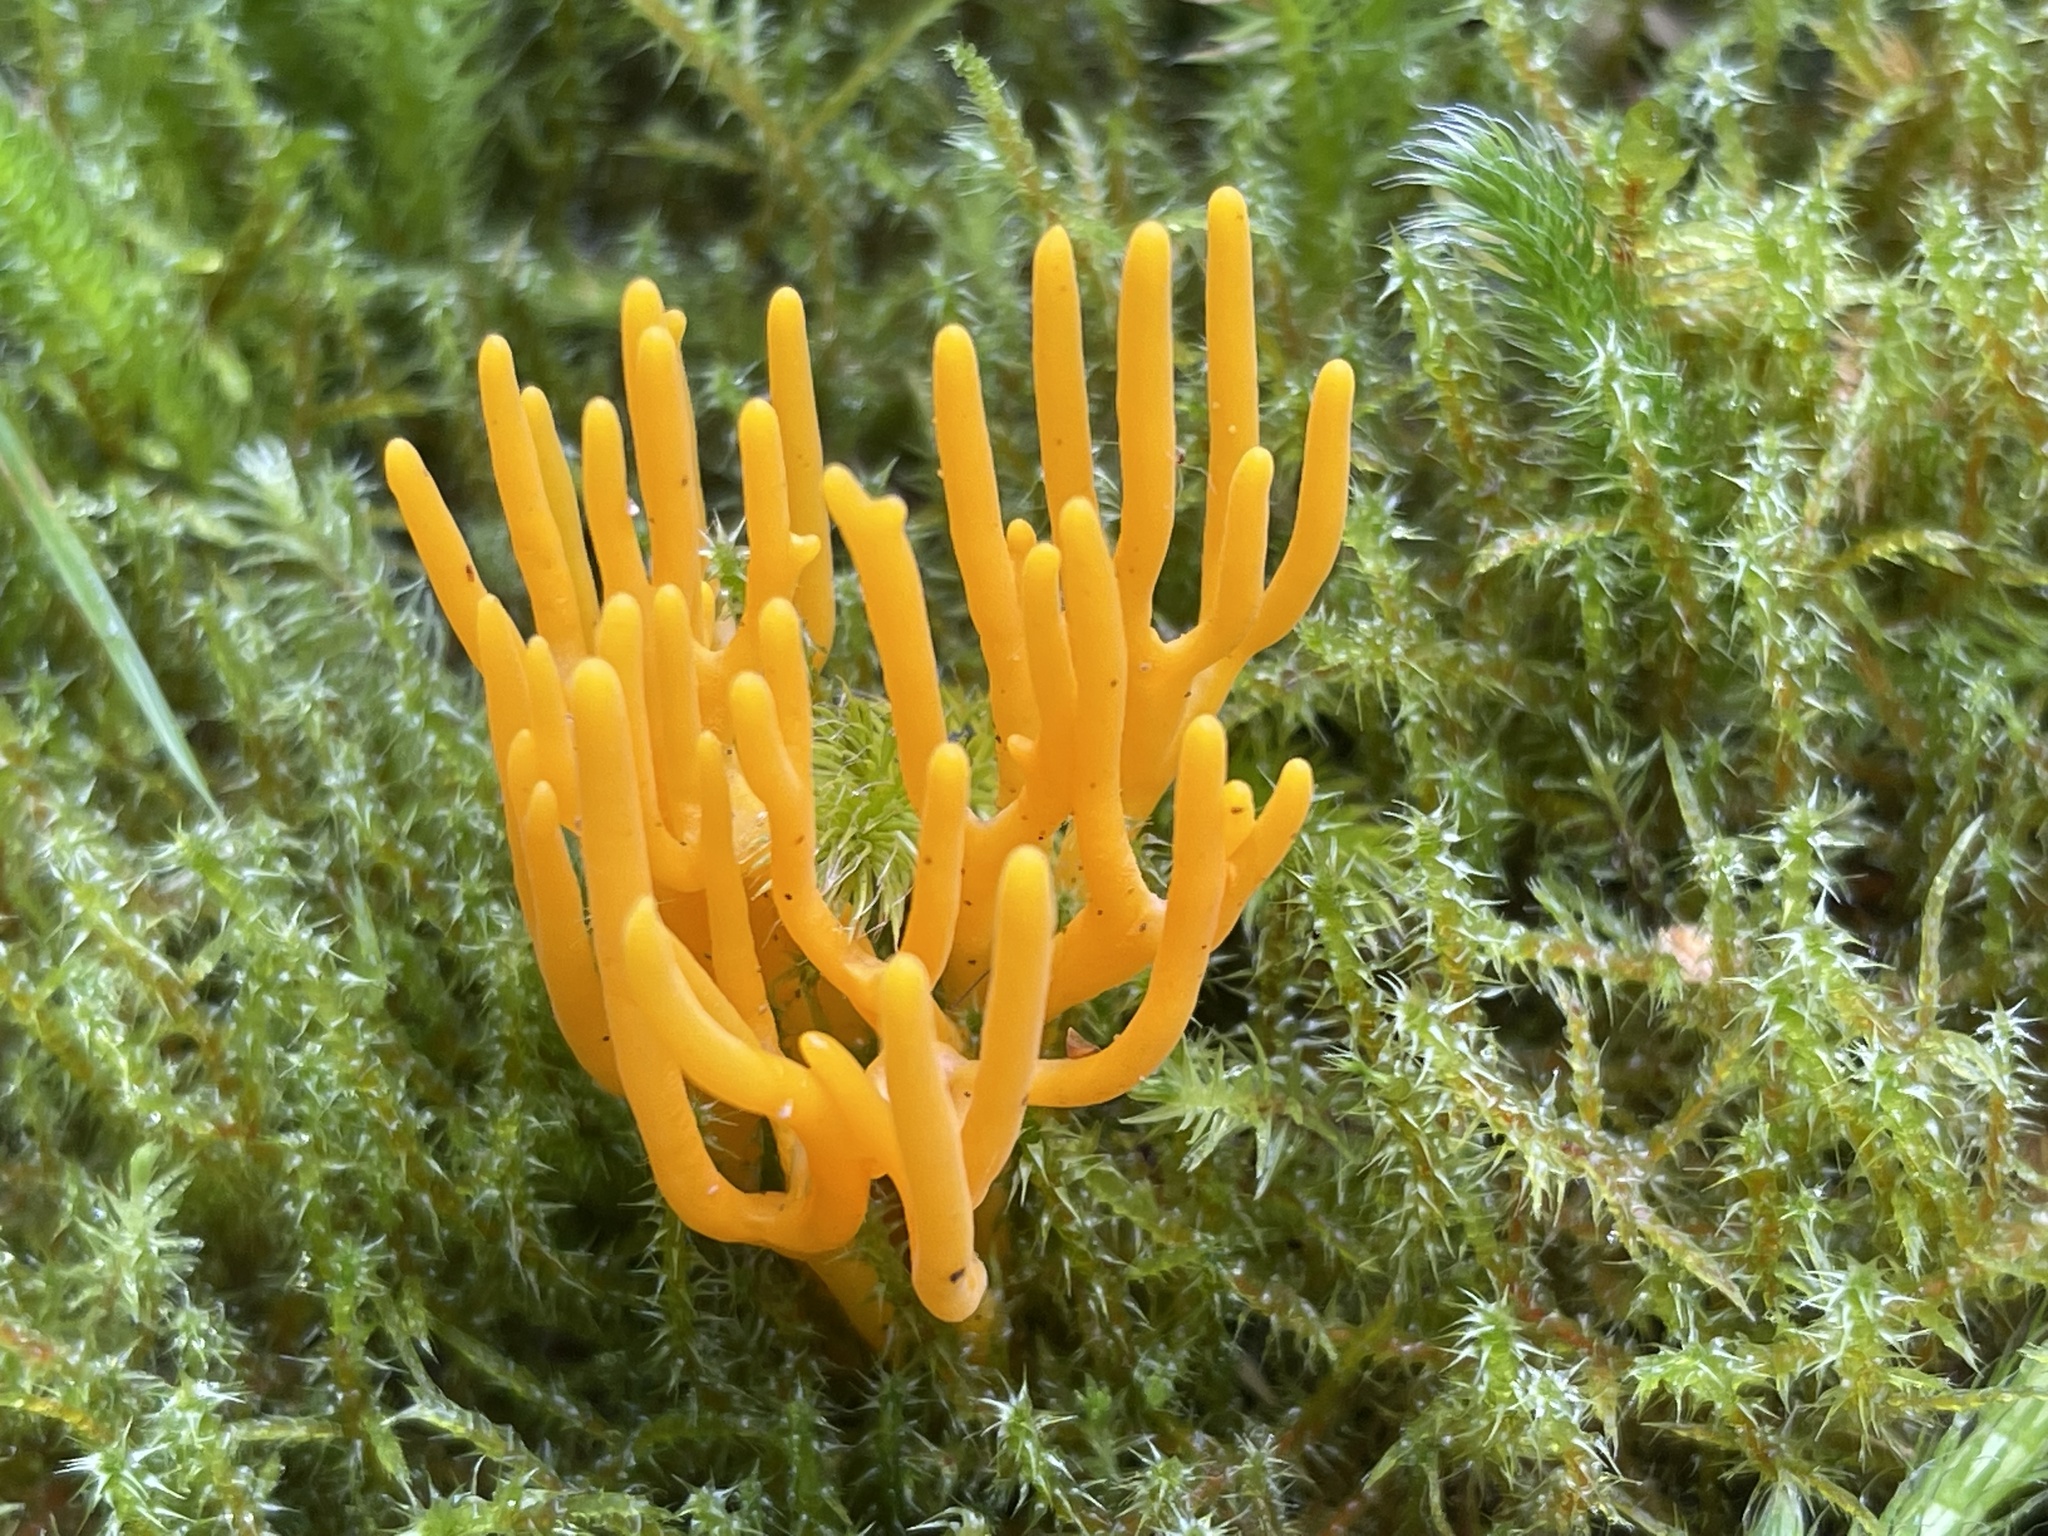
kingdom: Fungi
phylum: Basidiomycota
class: Dacrymycetes
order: Dacrymycetales
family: Dacrymycetaceae
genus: Calocera
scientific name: Calocera viscosa
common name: Yellow stagshorn
